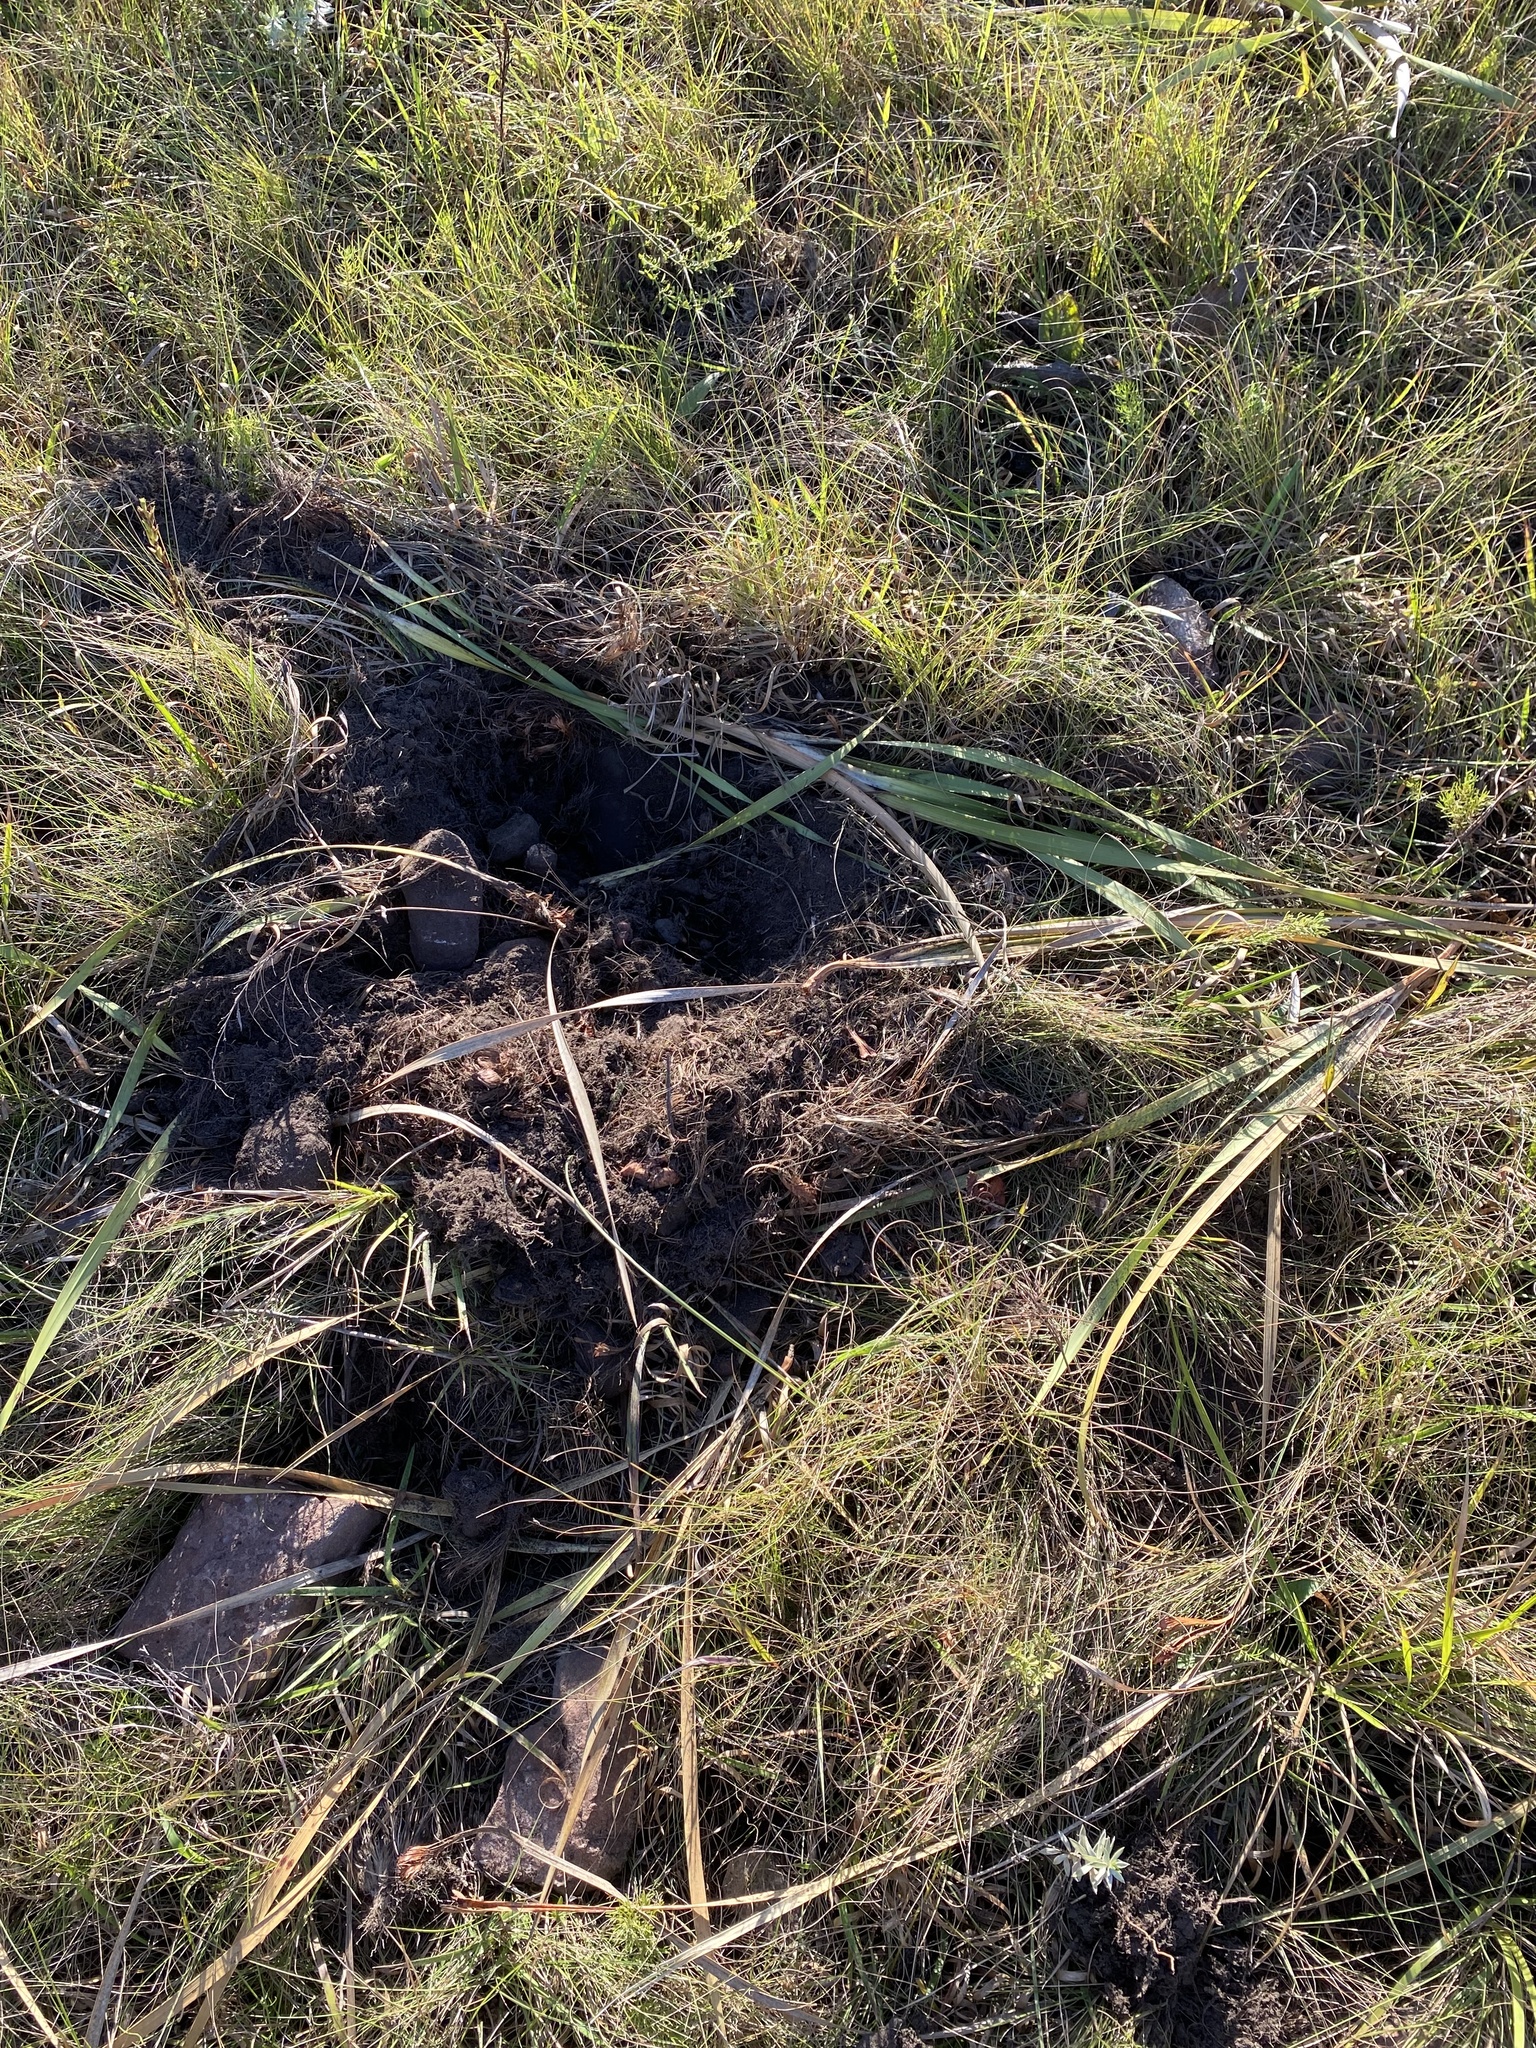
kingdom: Animalia
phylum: Chordata
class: Mammalia
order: Artiodactyla
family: Suidae
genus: Potamochoerus
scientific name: Potamochoerus larvatus
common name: Bushpig
